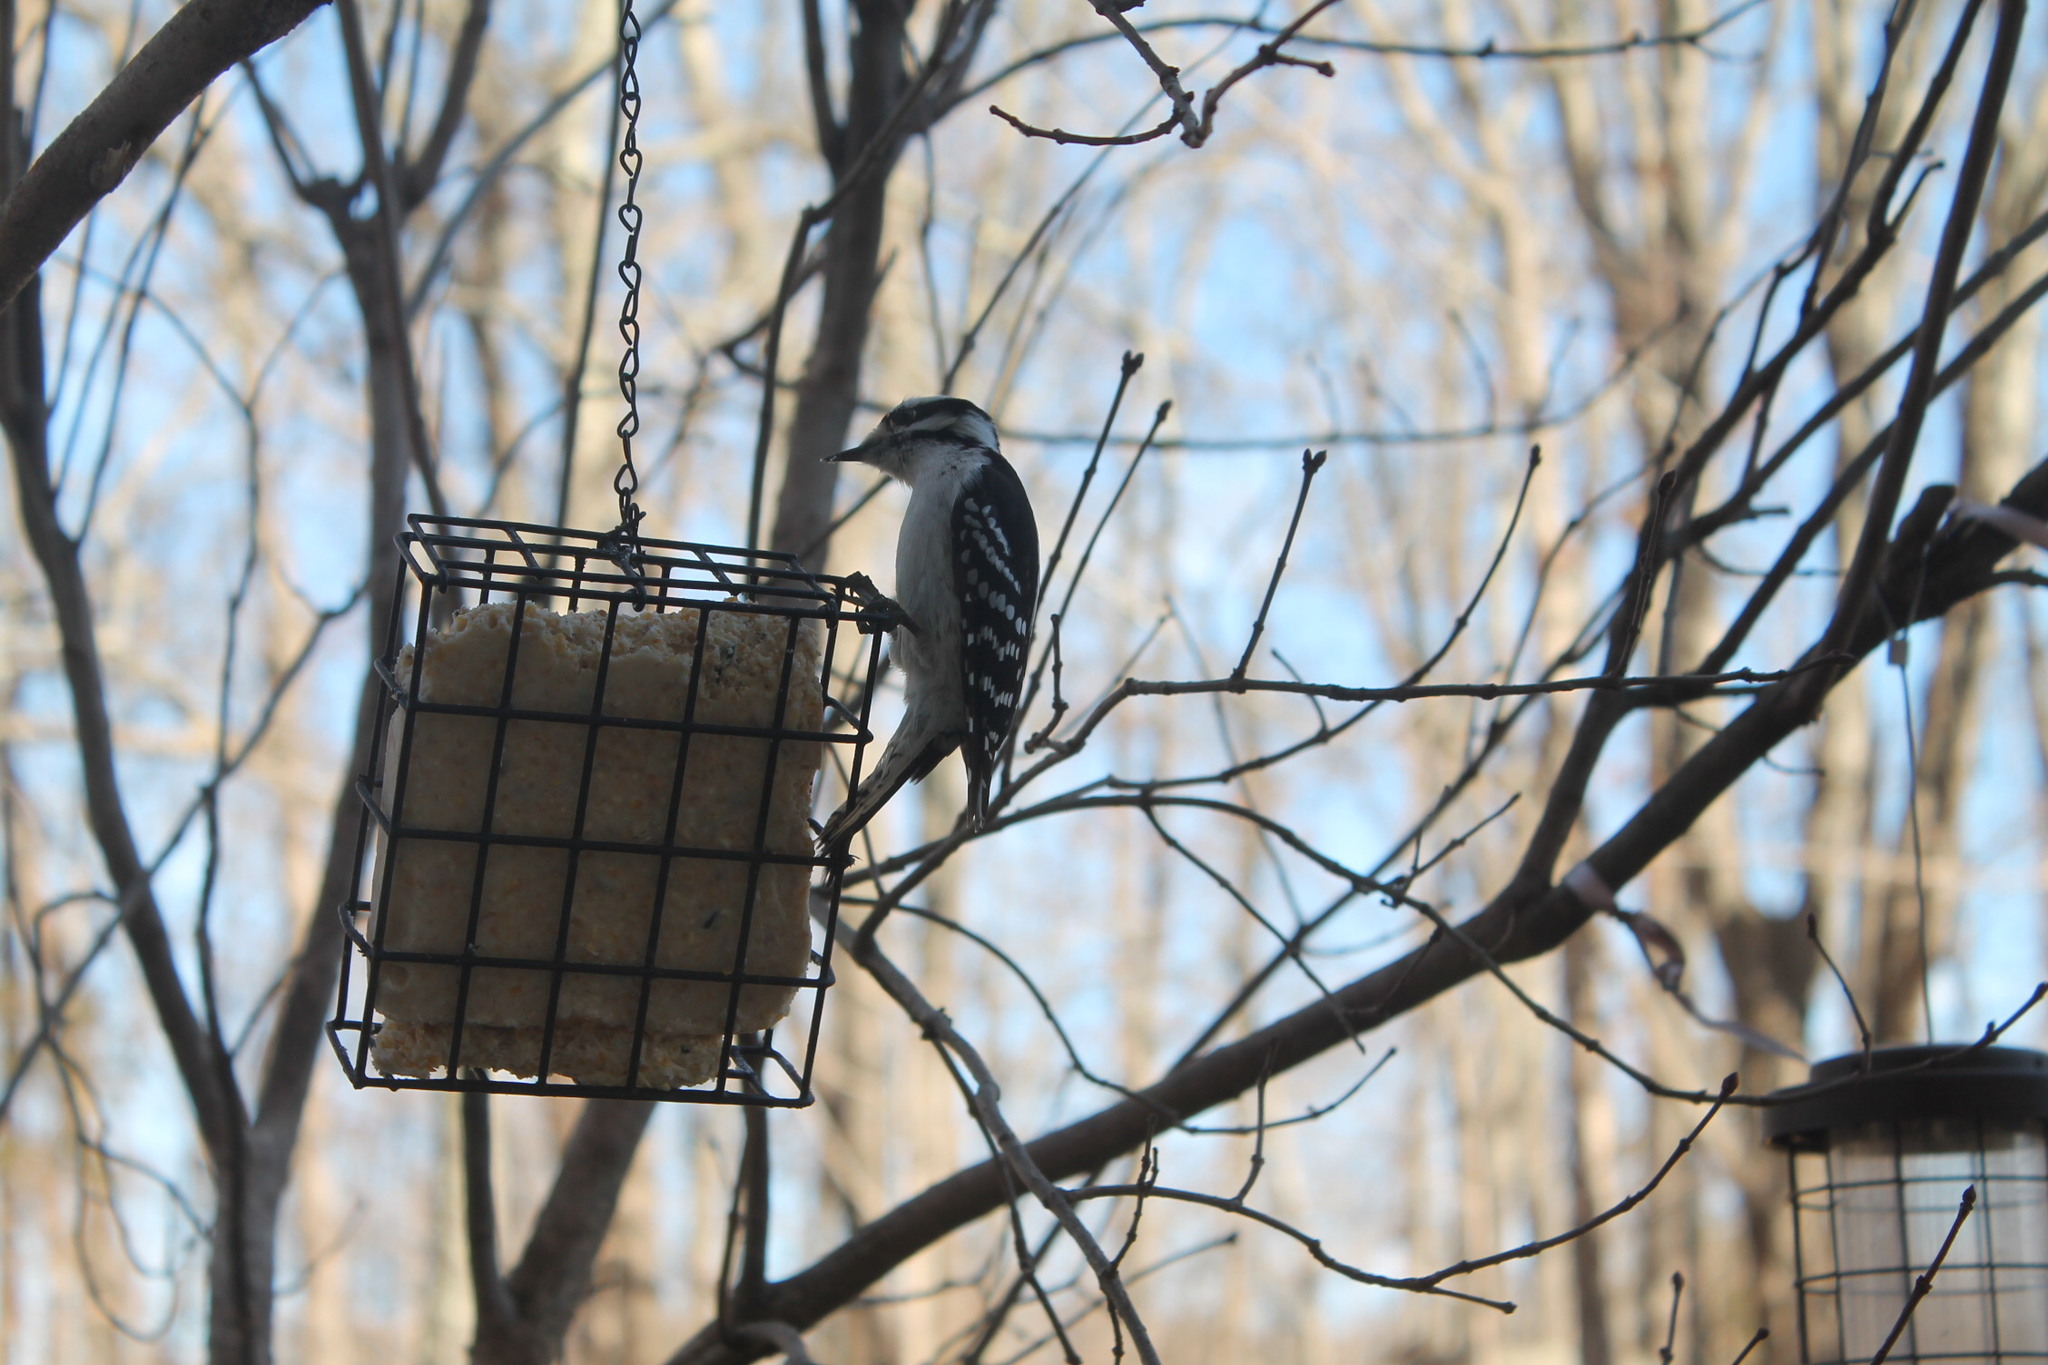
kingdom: Animalia
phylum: Chordata
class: Aves
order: Piciformes
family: Picidae
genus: Dryobates
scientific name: Dryobates pubescens
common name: Downy woodpecker
